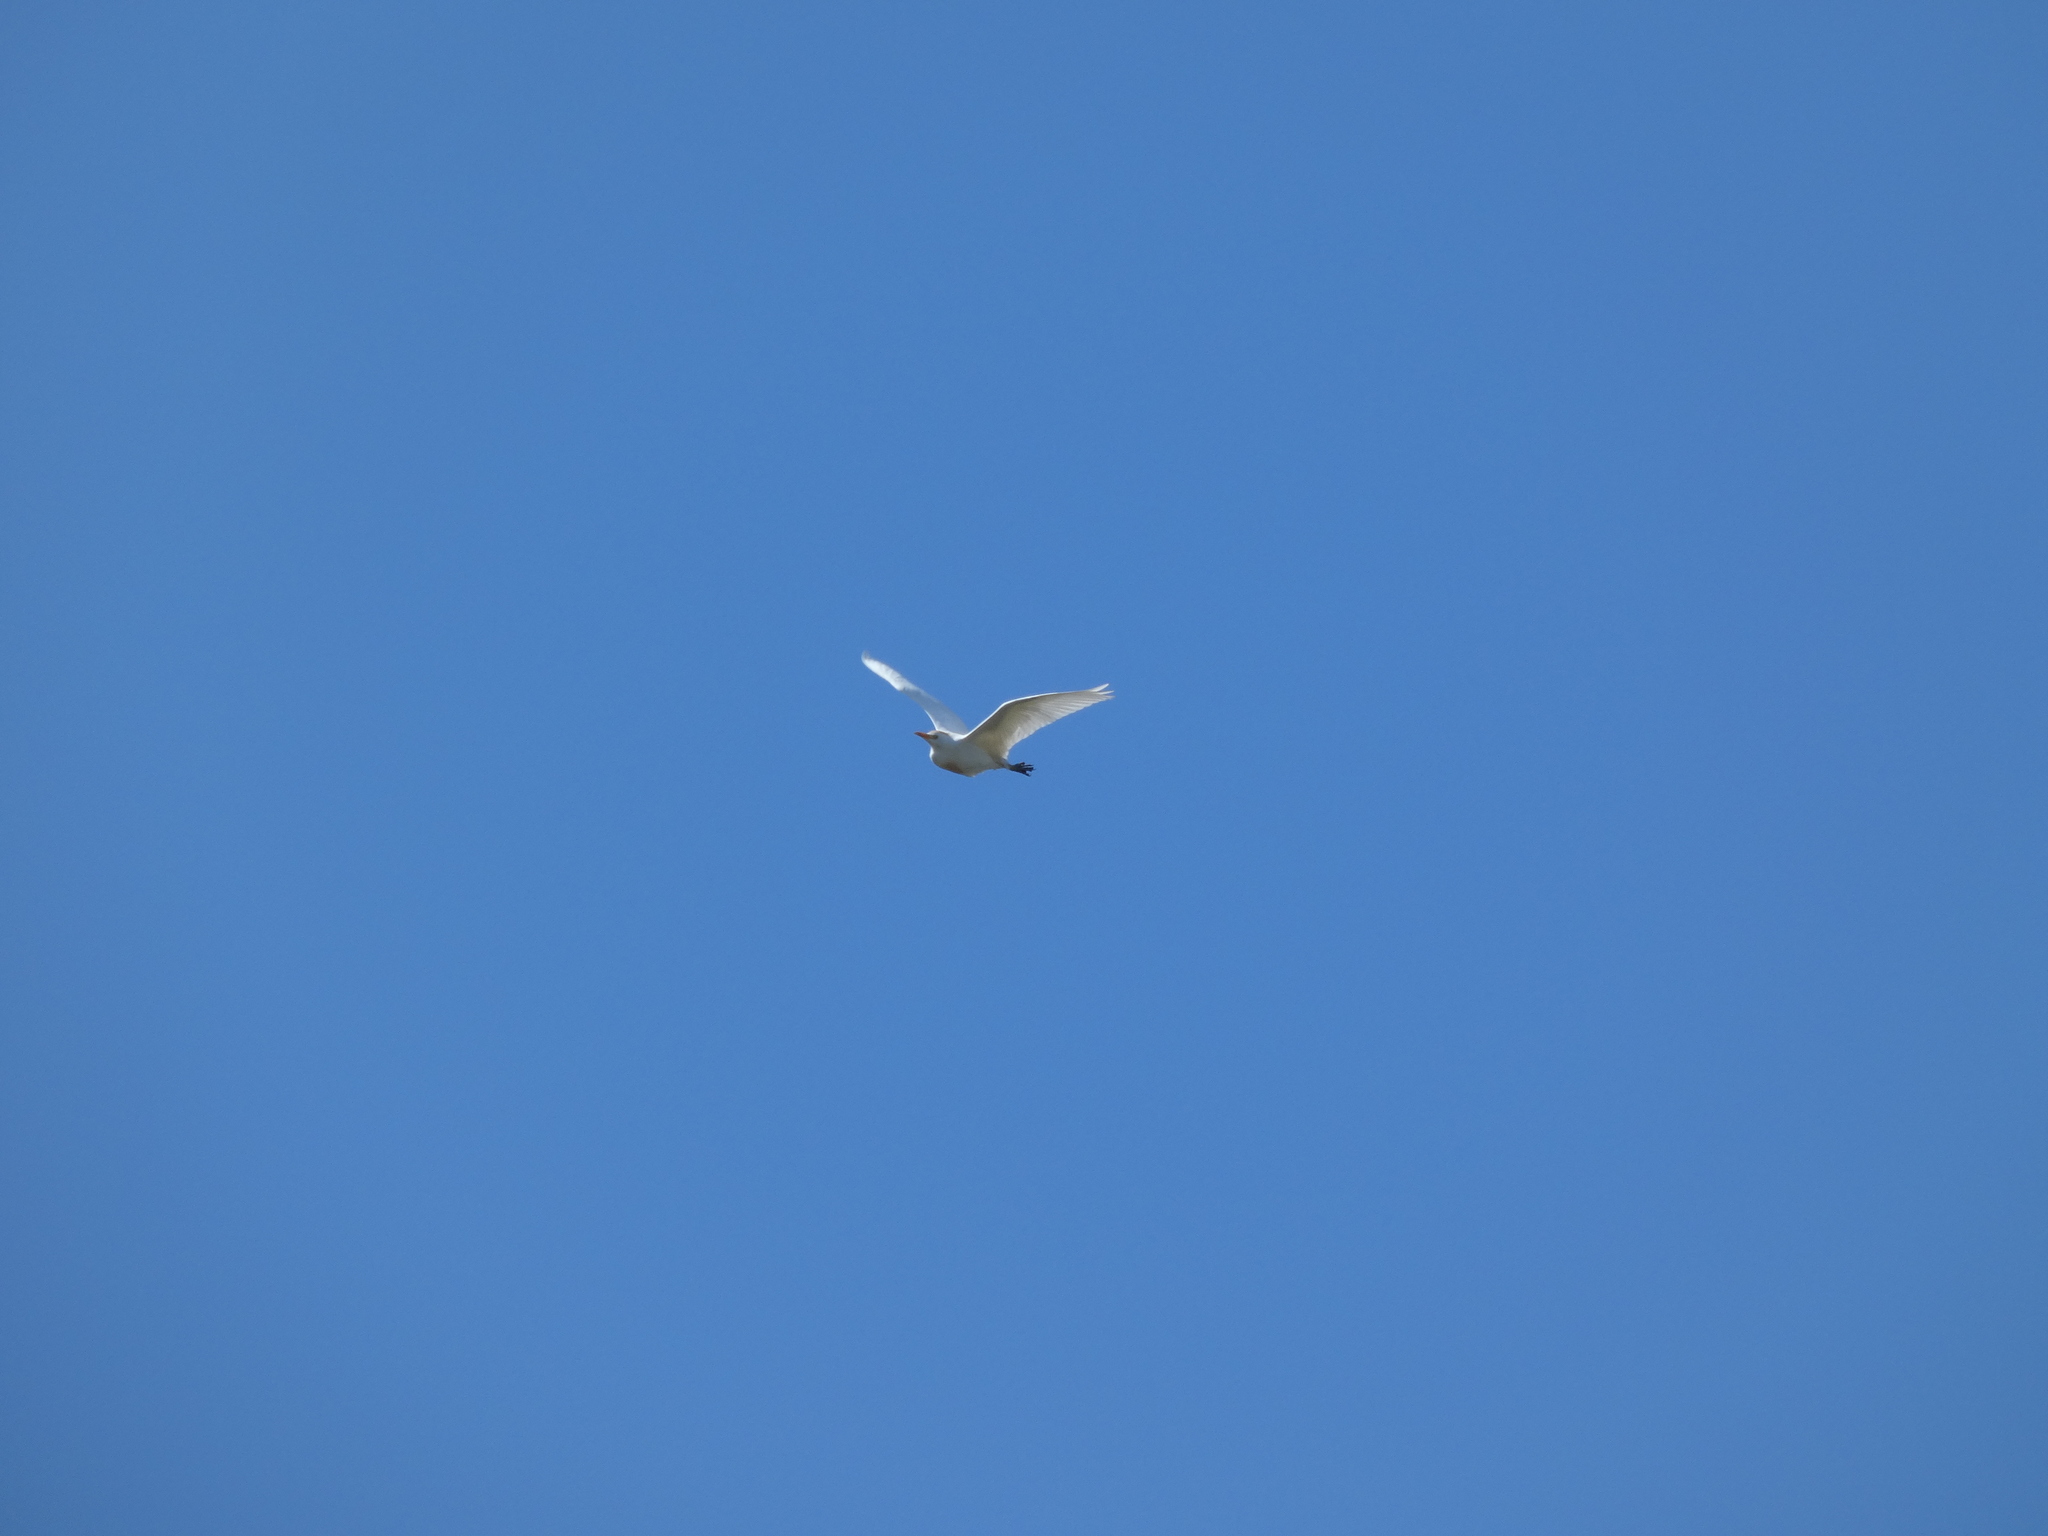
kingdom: Animalia
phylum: Chordata
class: Aves
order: Pelecaniformes
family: Ardeidae
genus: Bubulcus
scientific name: Bubulcus ibis
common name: Cattle egret
